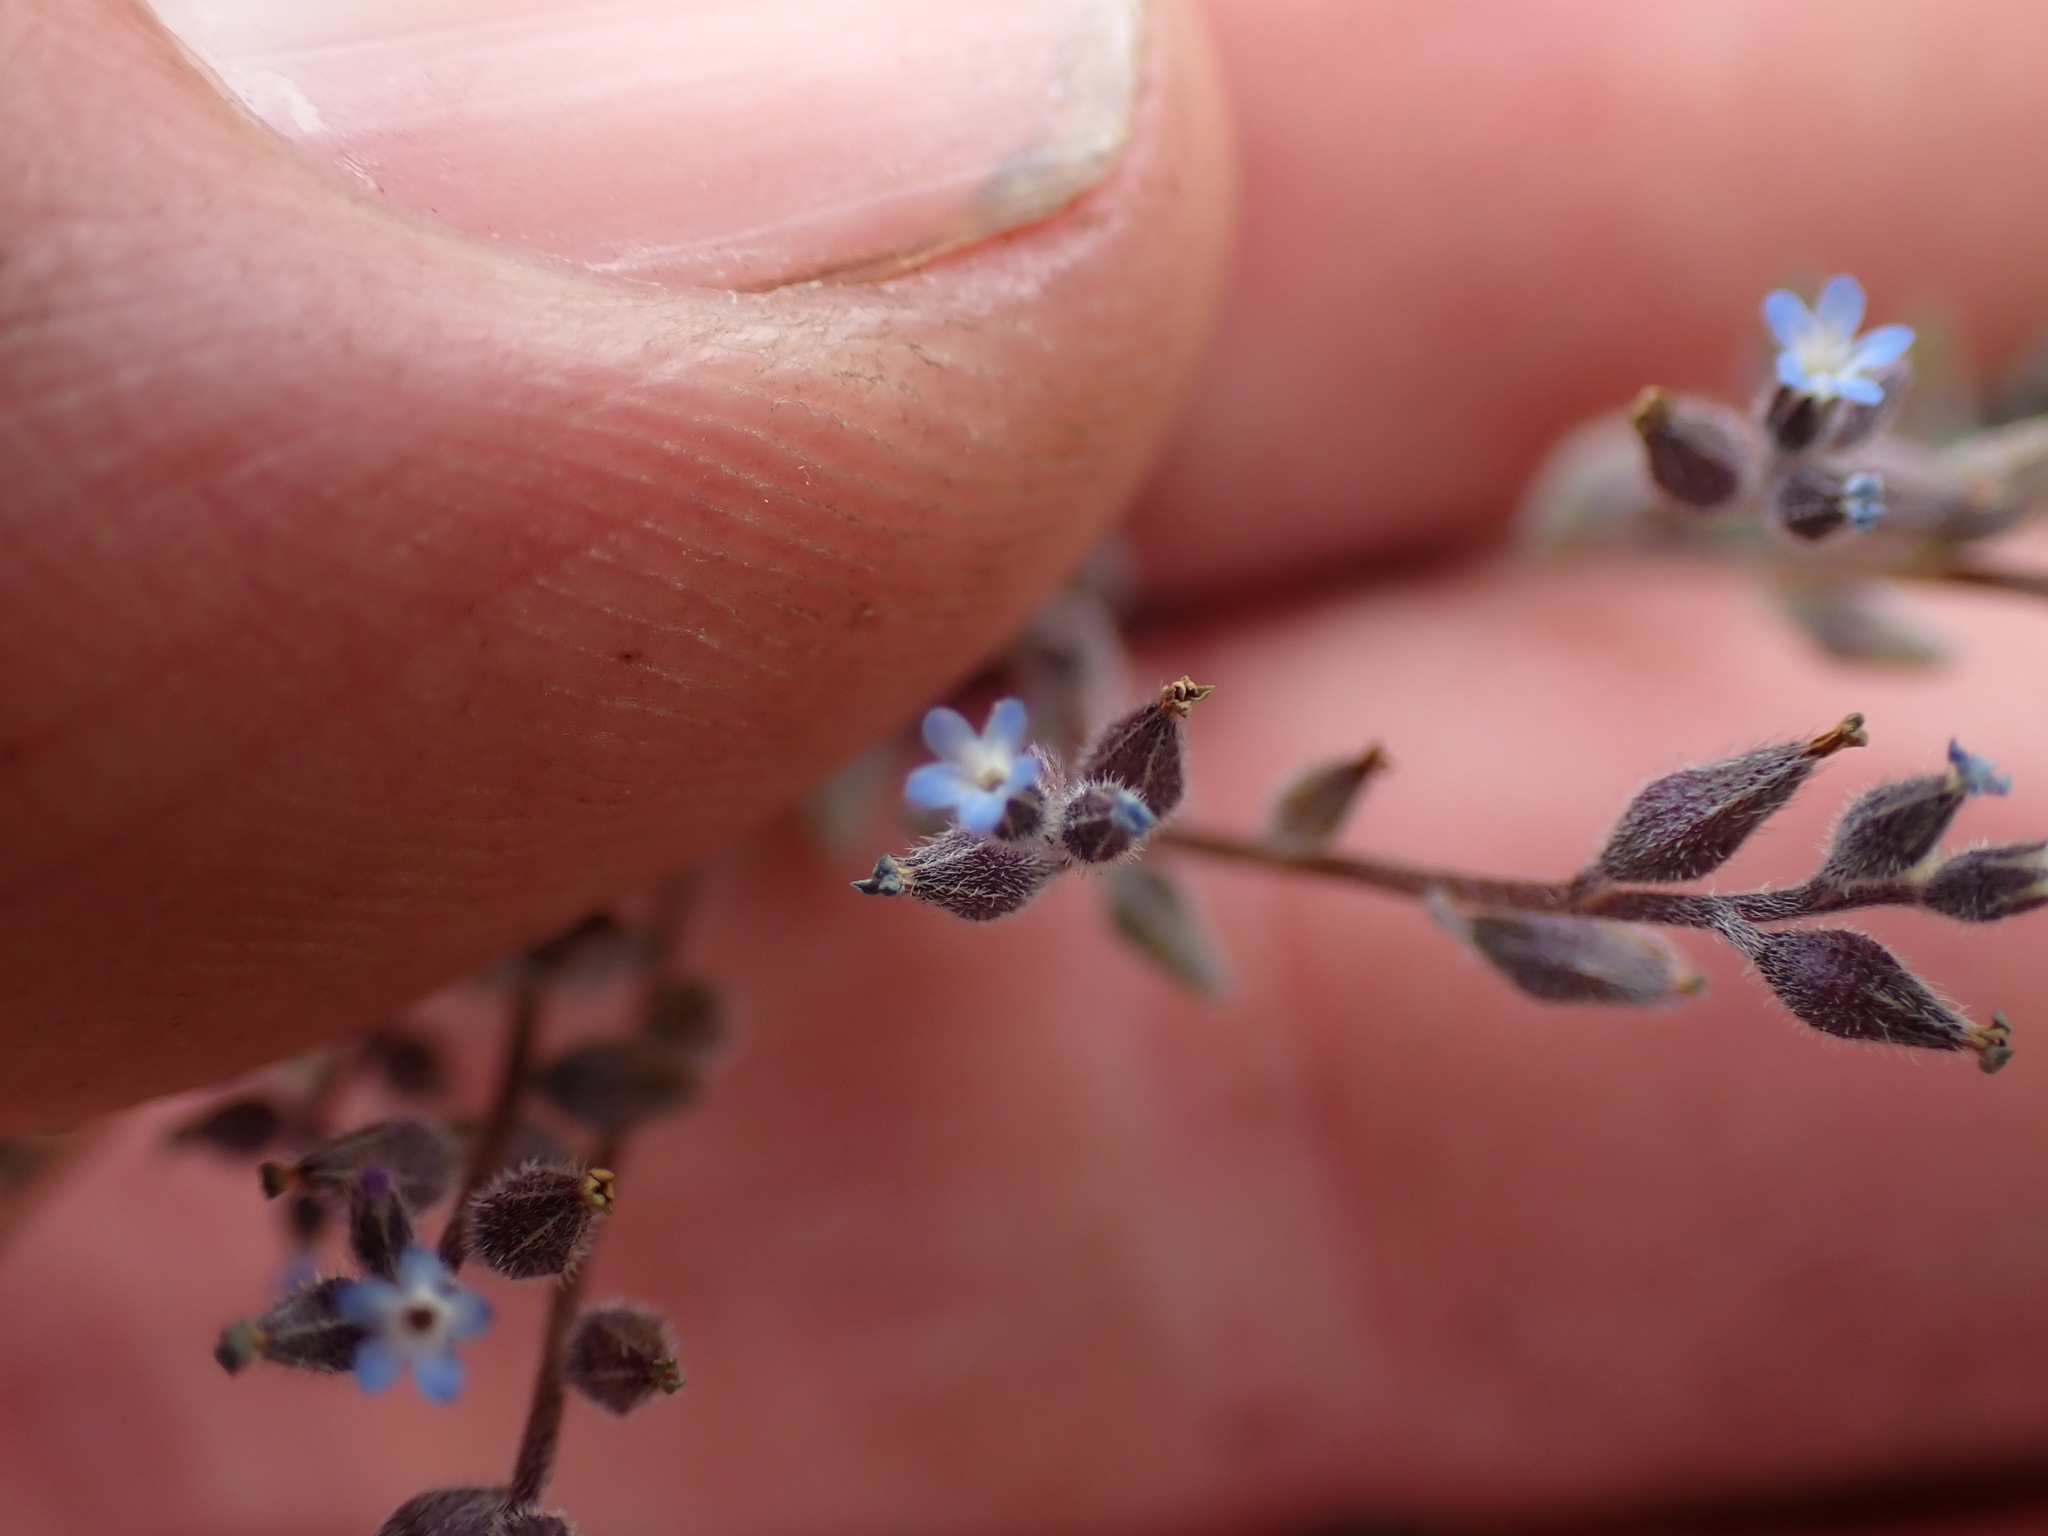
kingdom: Plantae
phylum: Tracheophyta
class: Magnoliopsida
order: Boraginales
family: Boraginaceae
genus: Myosotis
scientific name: Myosotis stricta
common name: Strict forget-me-not
